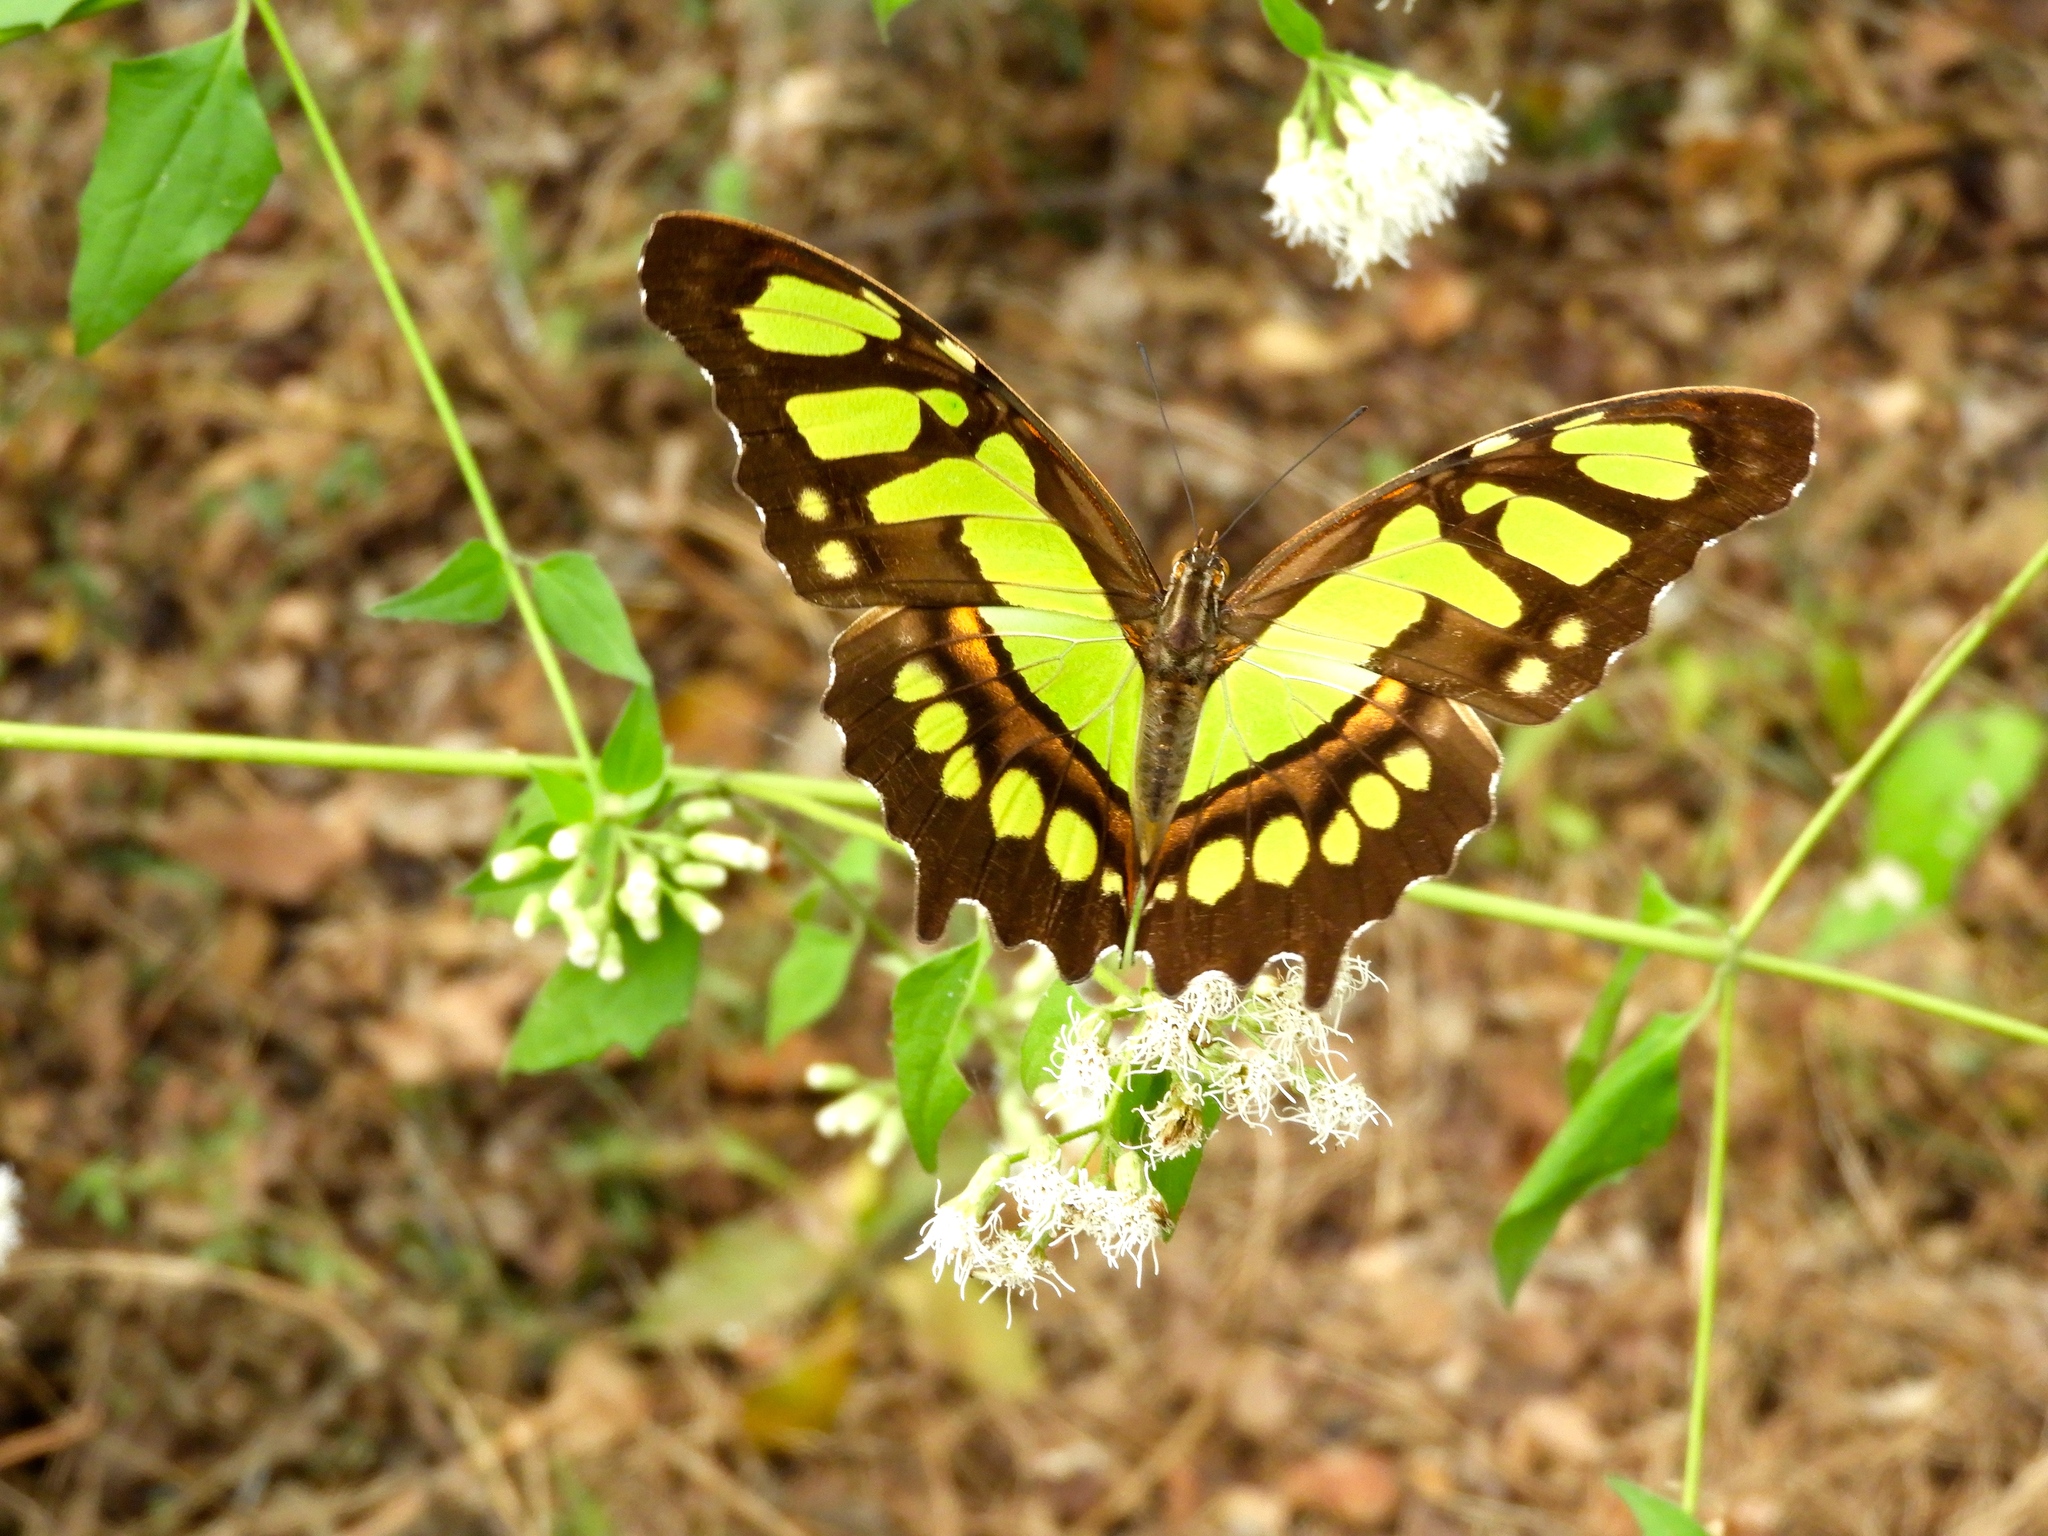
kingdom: Animalia
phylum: Arthropoda
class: Insecta
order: Lepidoptera
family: Nymphalidae
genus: Siproeta
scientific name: Siproeta stelenes
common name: Malachite
